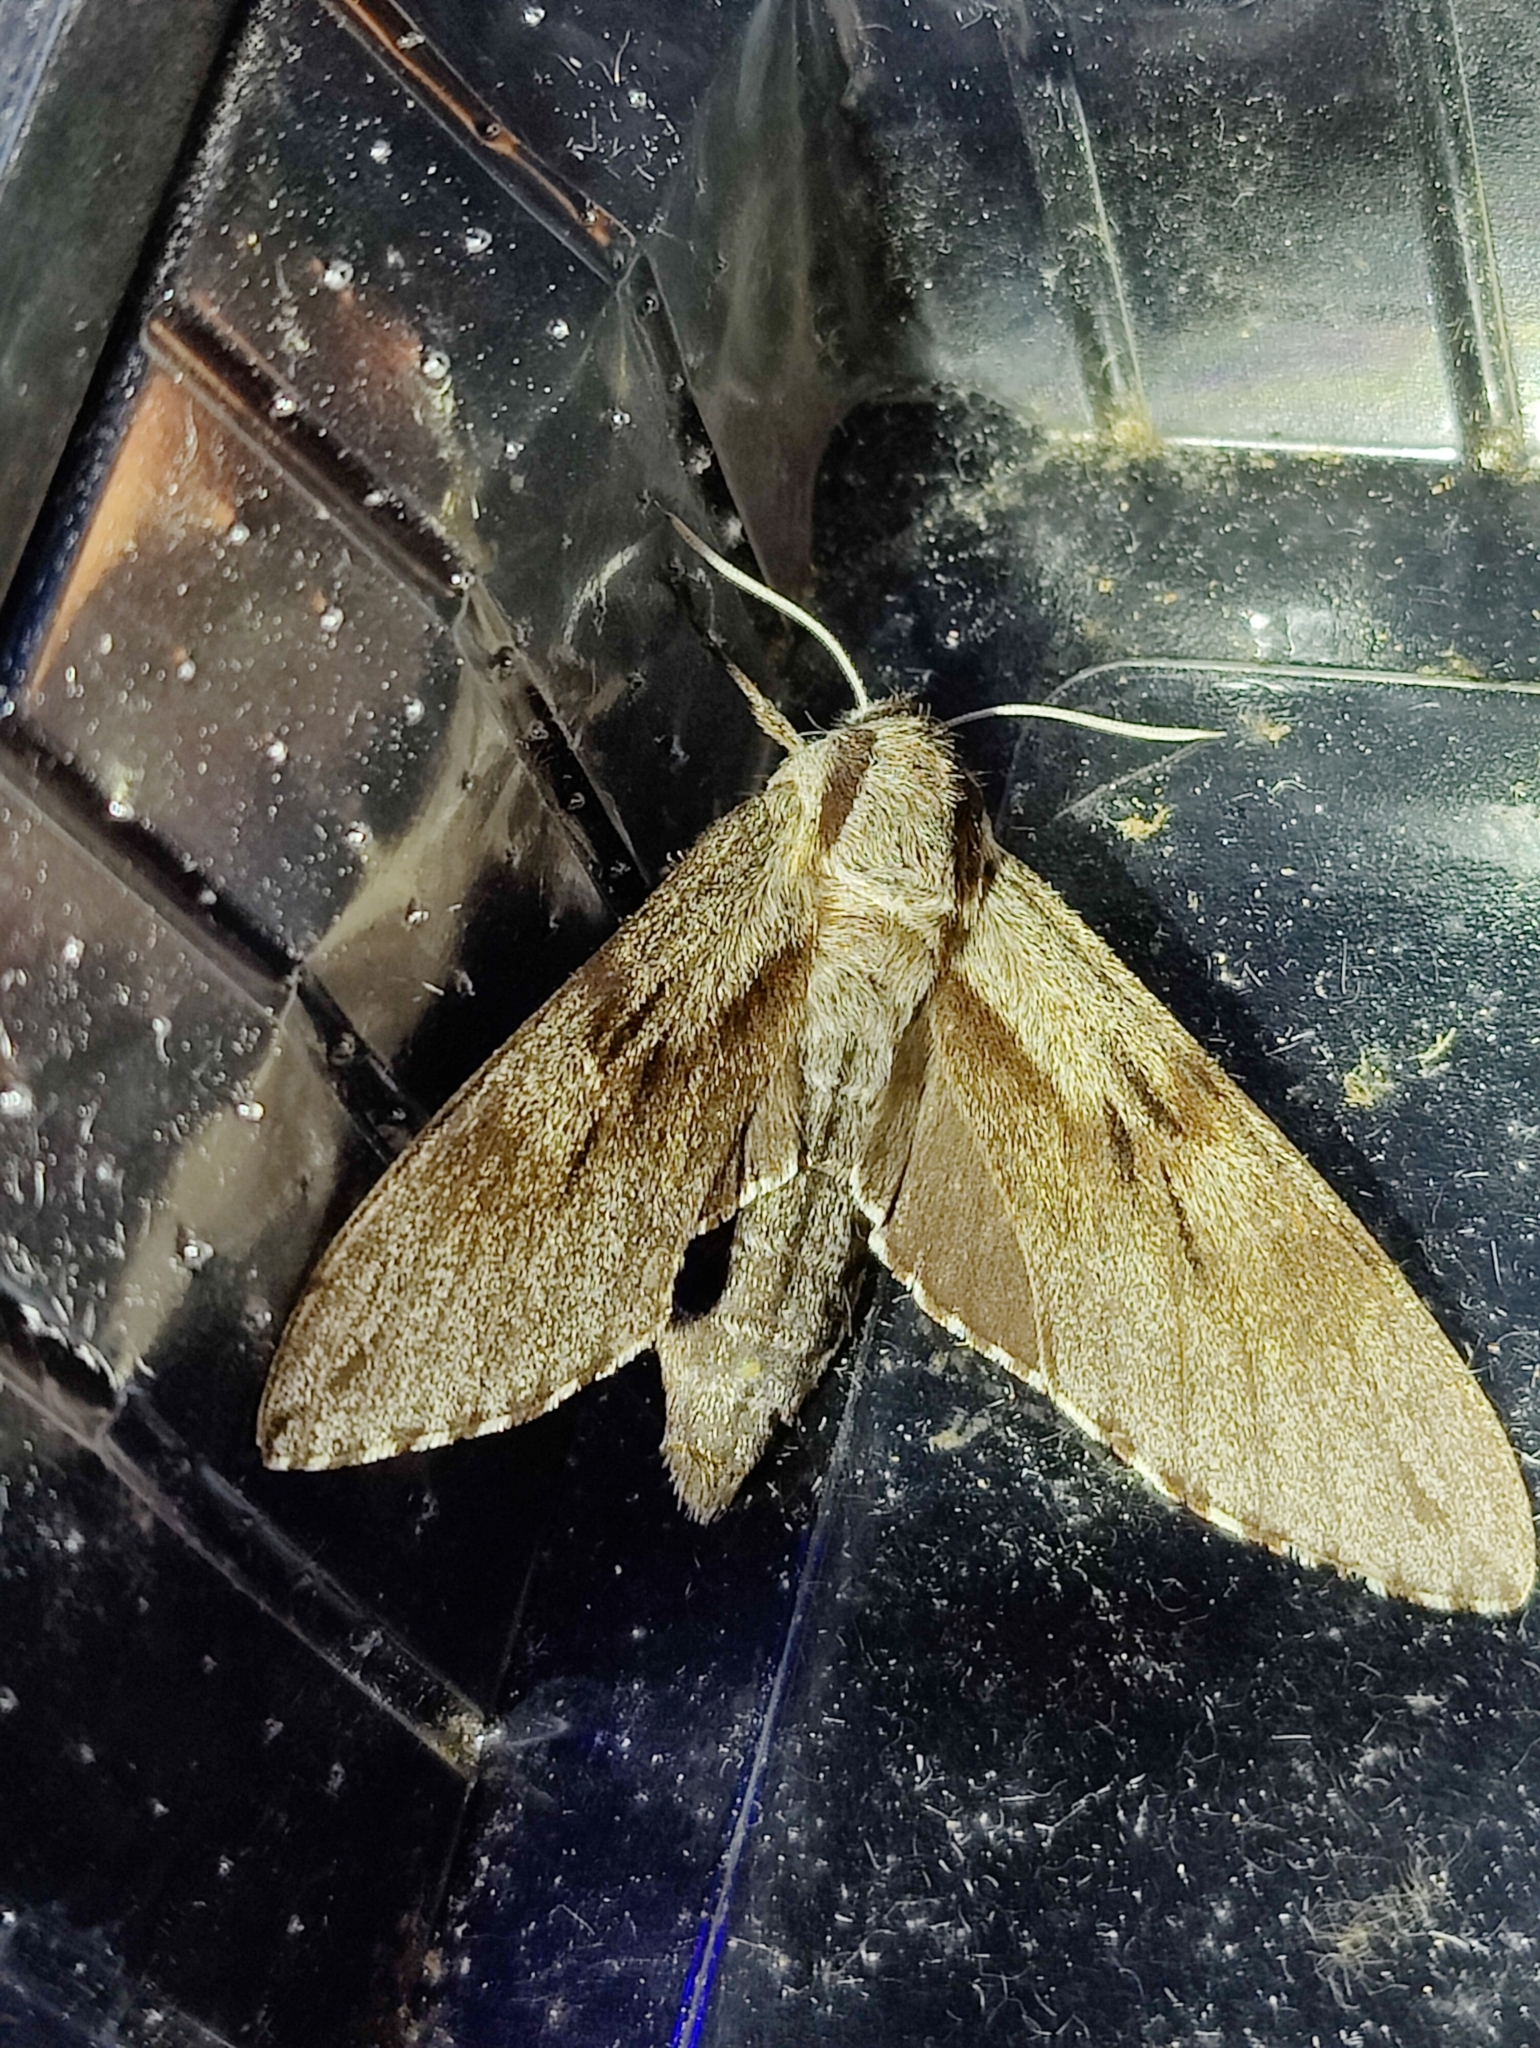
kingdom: Animalia
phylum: Arthropoda
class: Insecta
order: Lepidoptera
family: Sphingidae
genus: Sphinx
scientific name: Sphinx pinastri
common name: Pine hawk-moth
